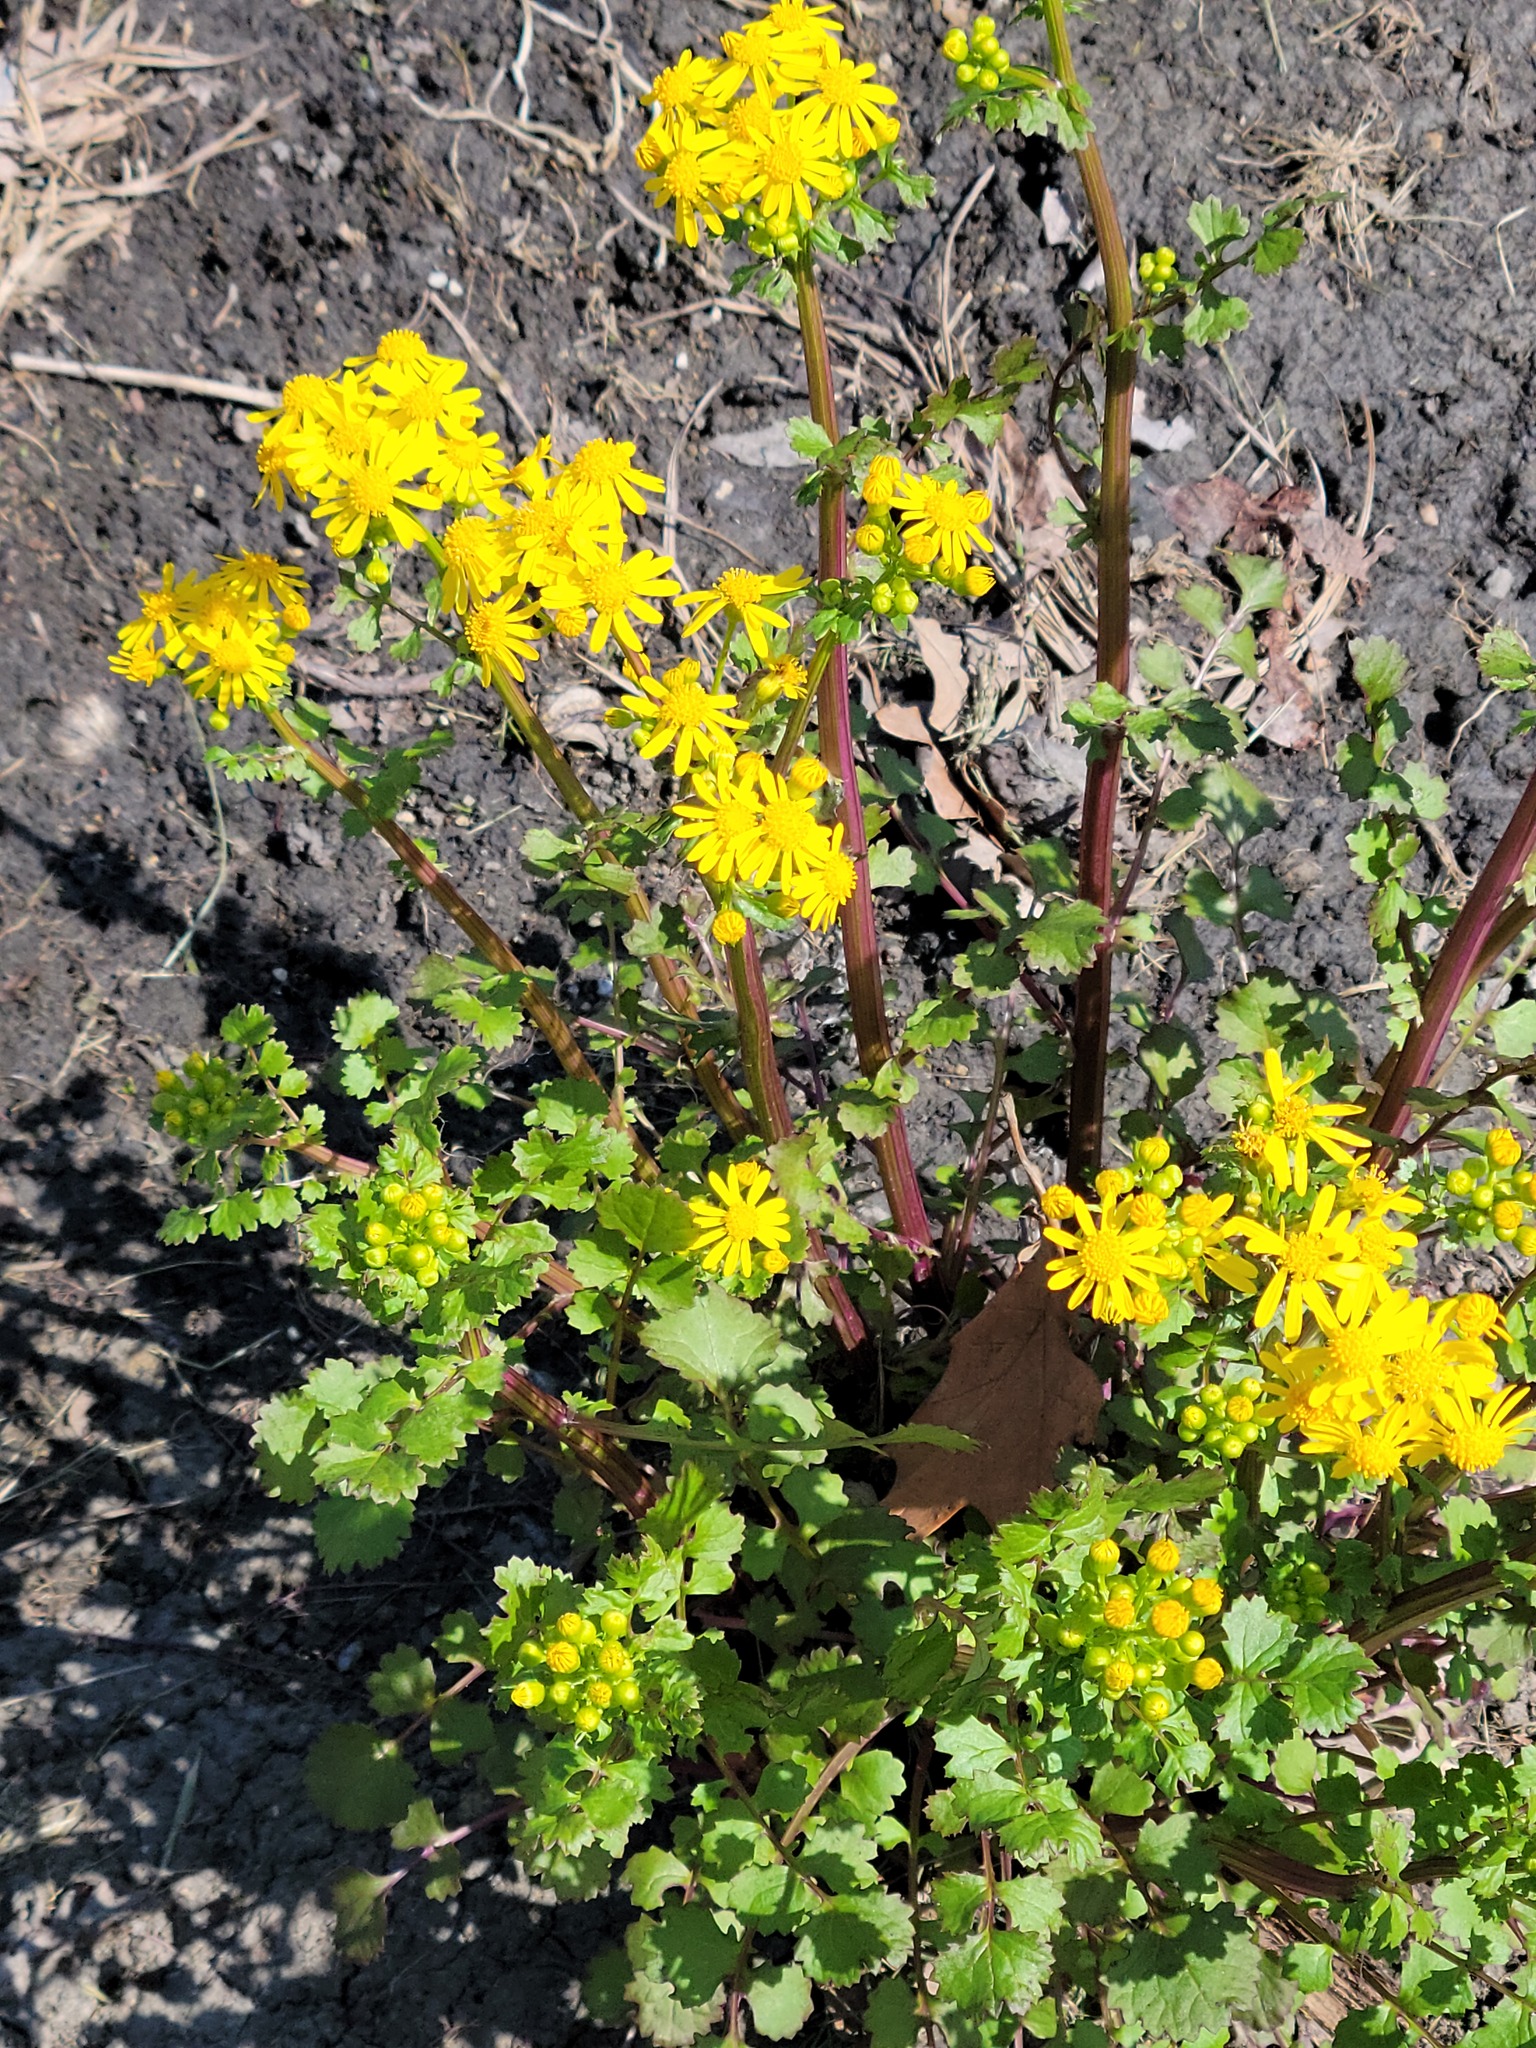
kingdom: Plantae
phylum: Tracheophyta
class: Magnoliopsida
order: Asterales
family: Asteraceae
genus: Packera
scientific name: Packera glabella
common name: Butterweed
